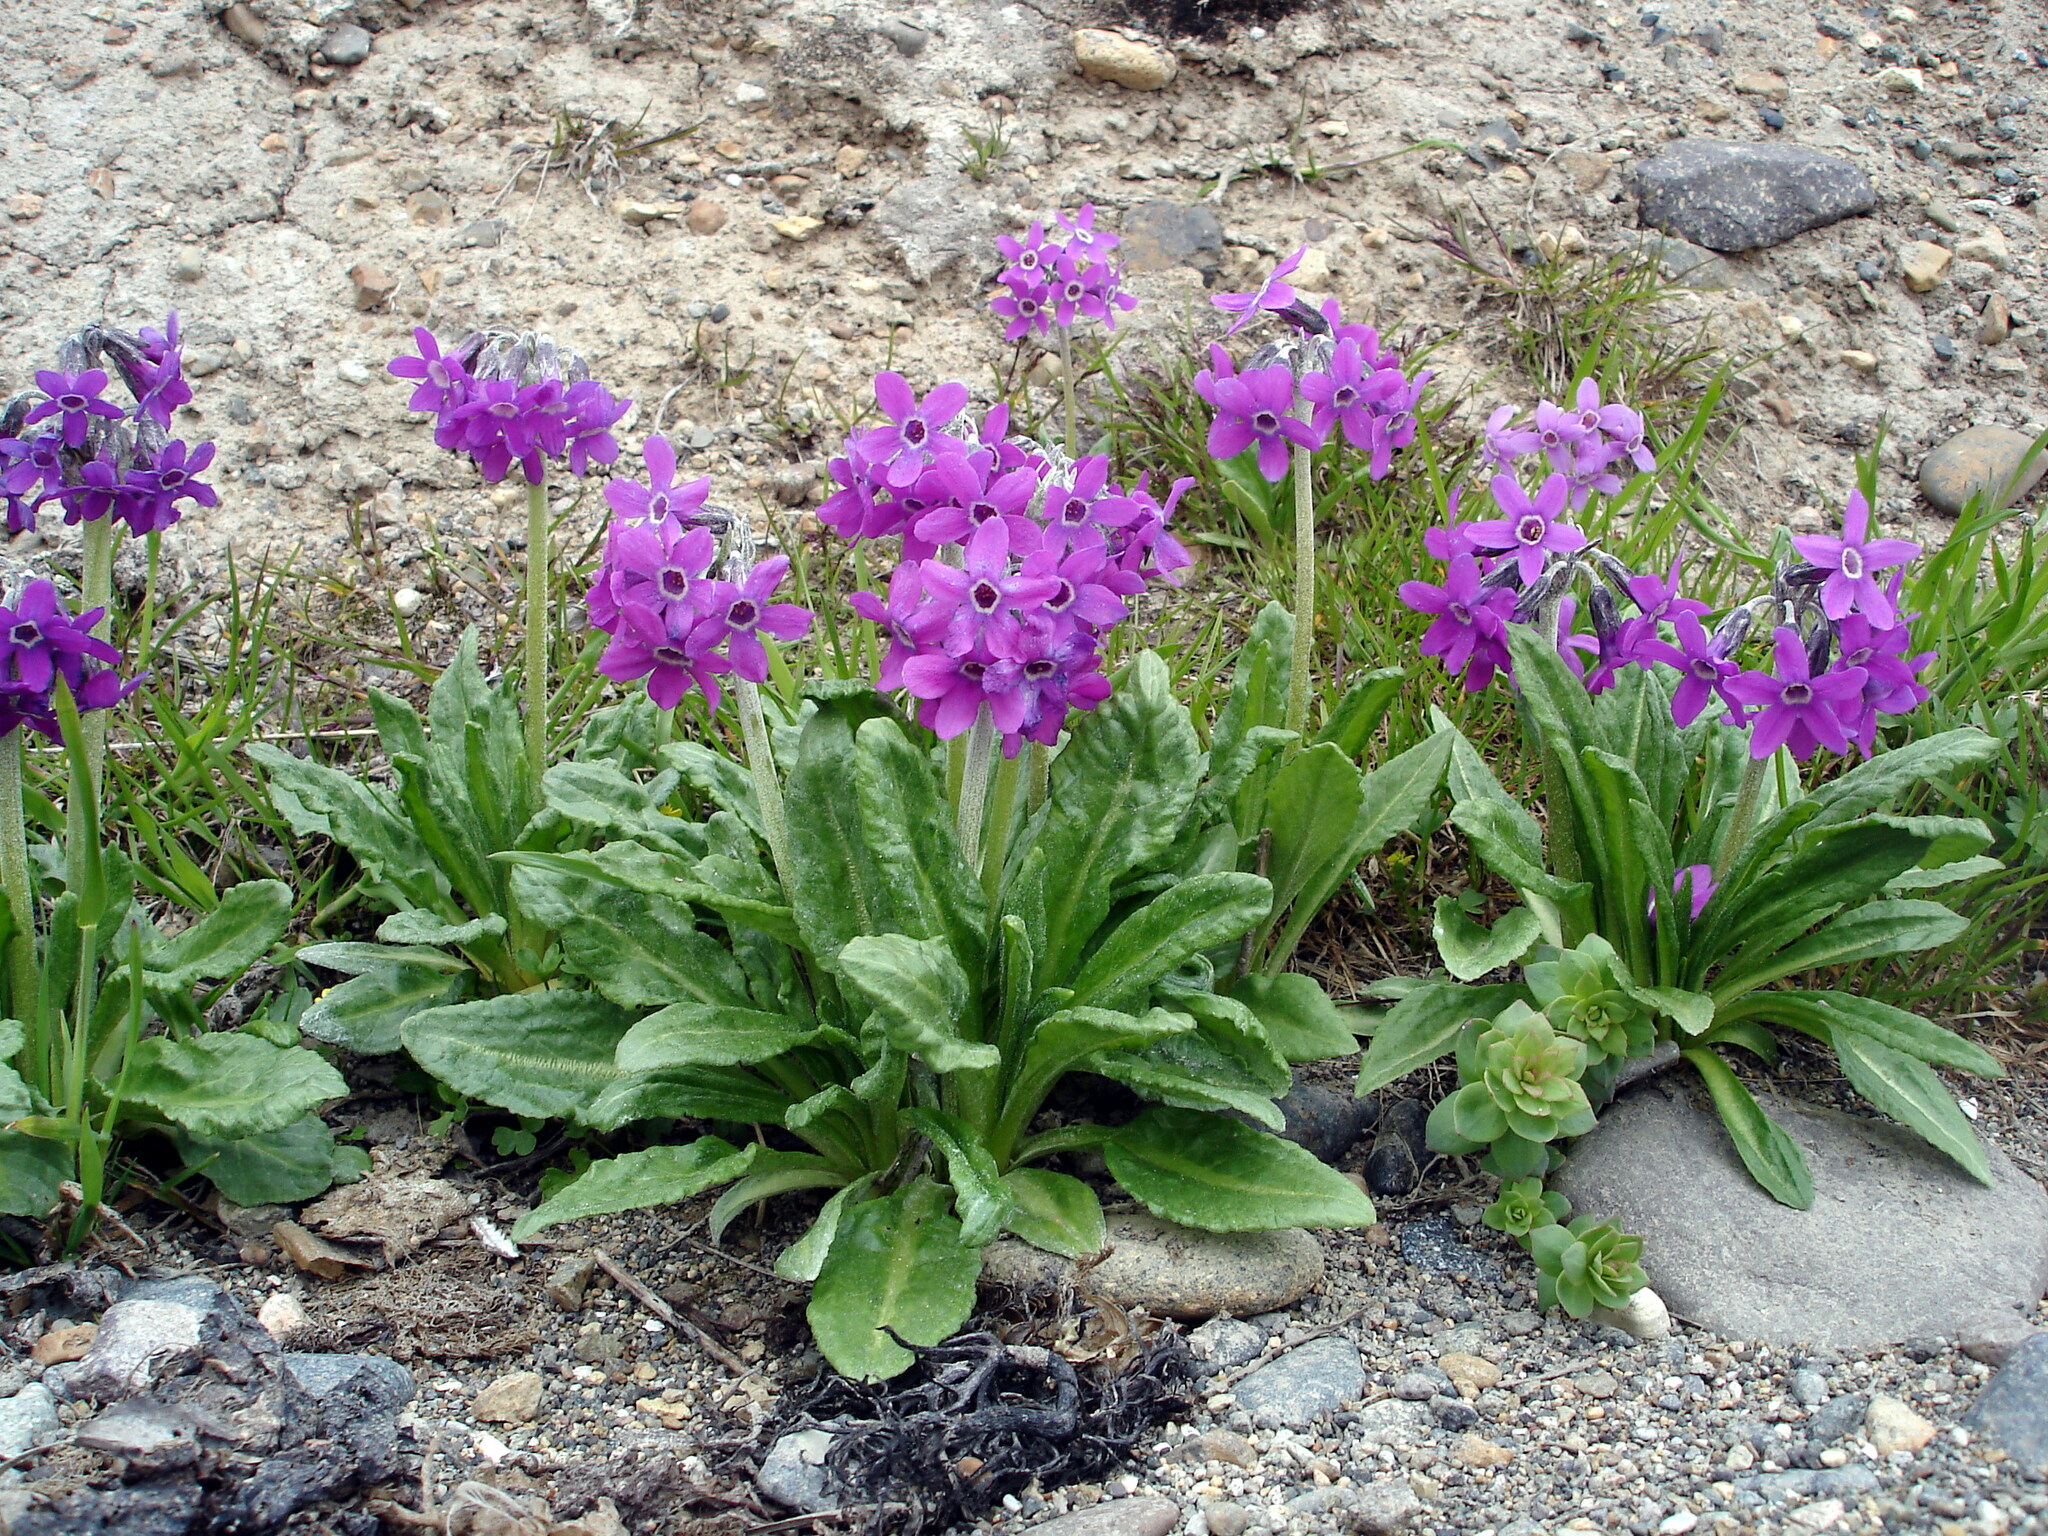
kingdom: Plantae
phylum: Tracheophyta
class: Magnoliopsida
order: Ericales
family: Primulaceae
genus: Primula
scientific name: Primula pumila
